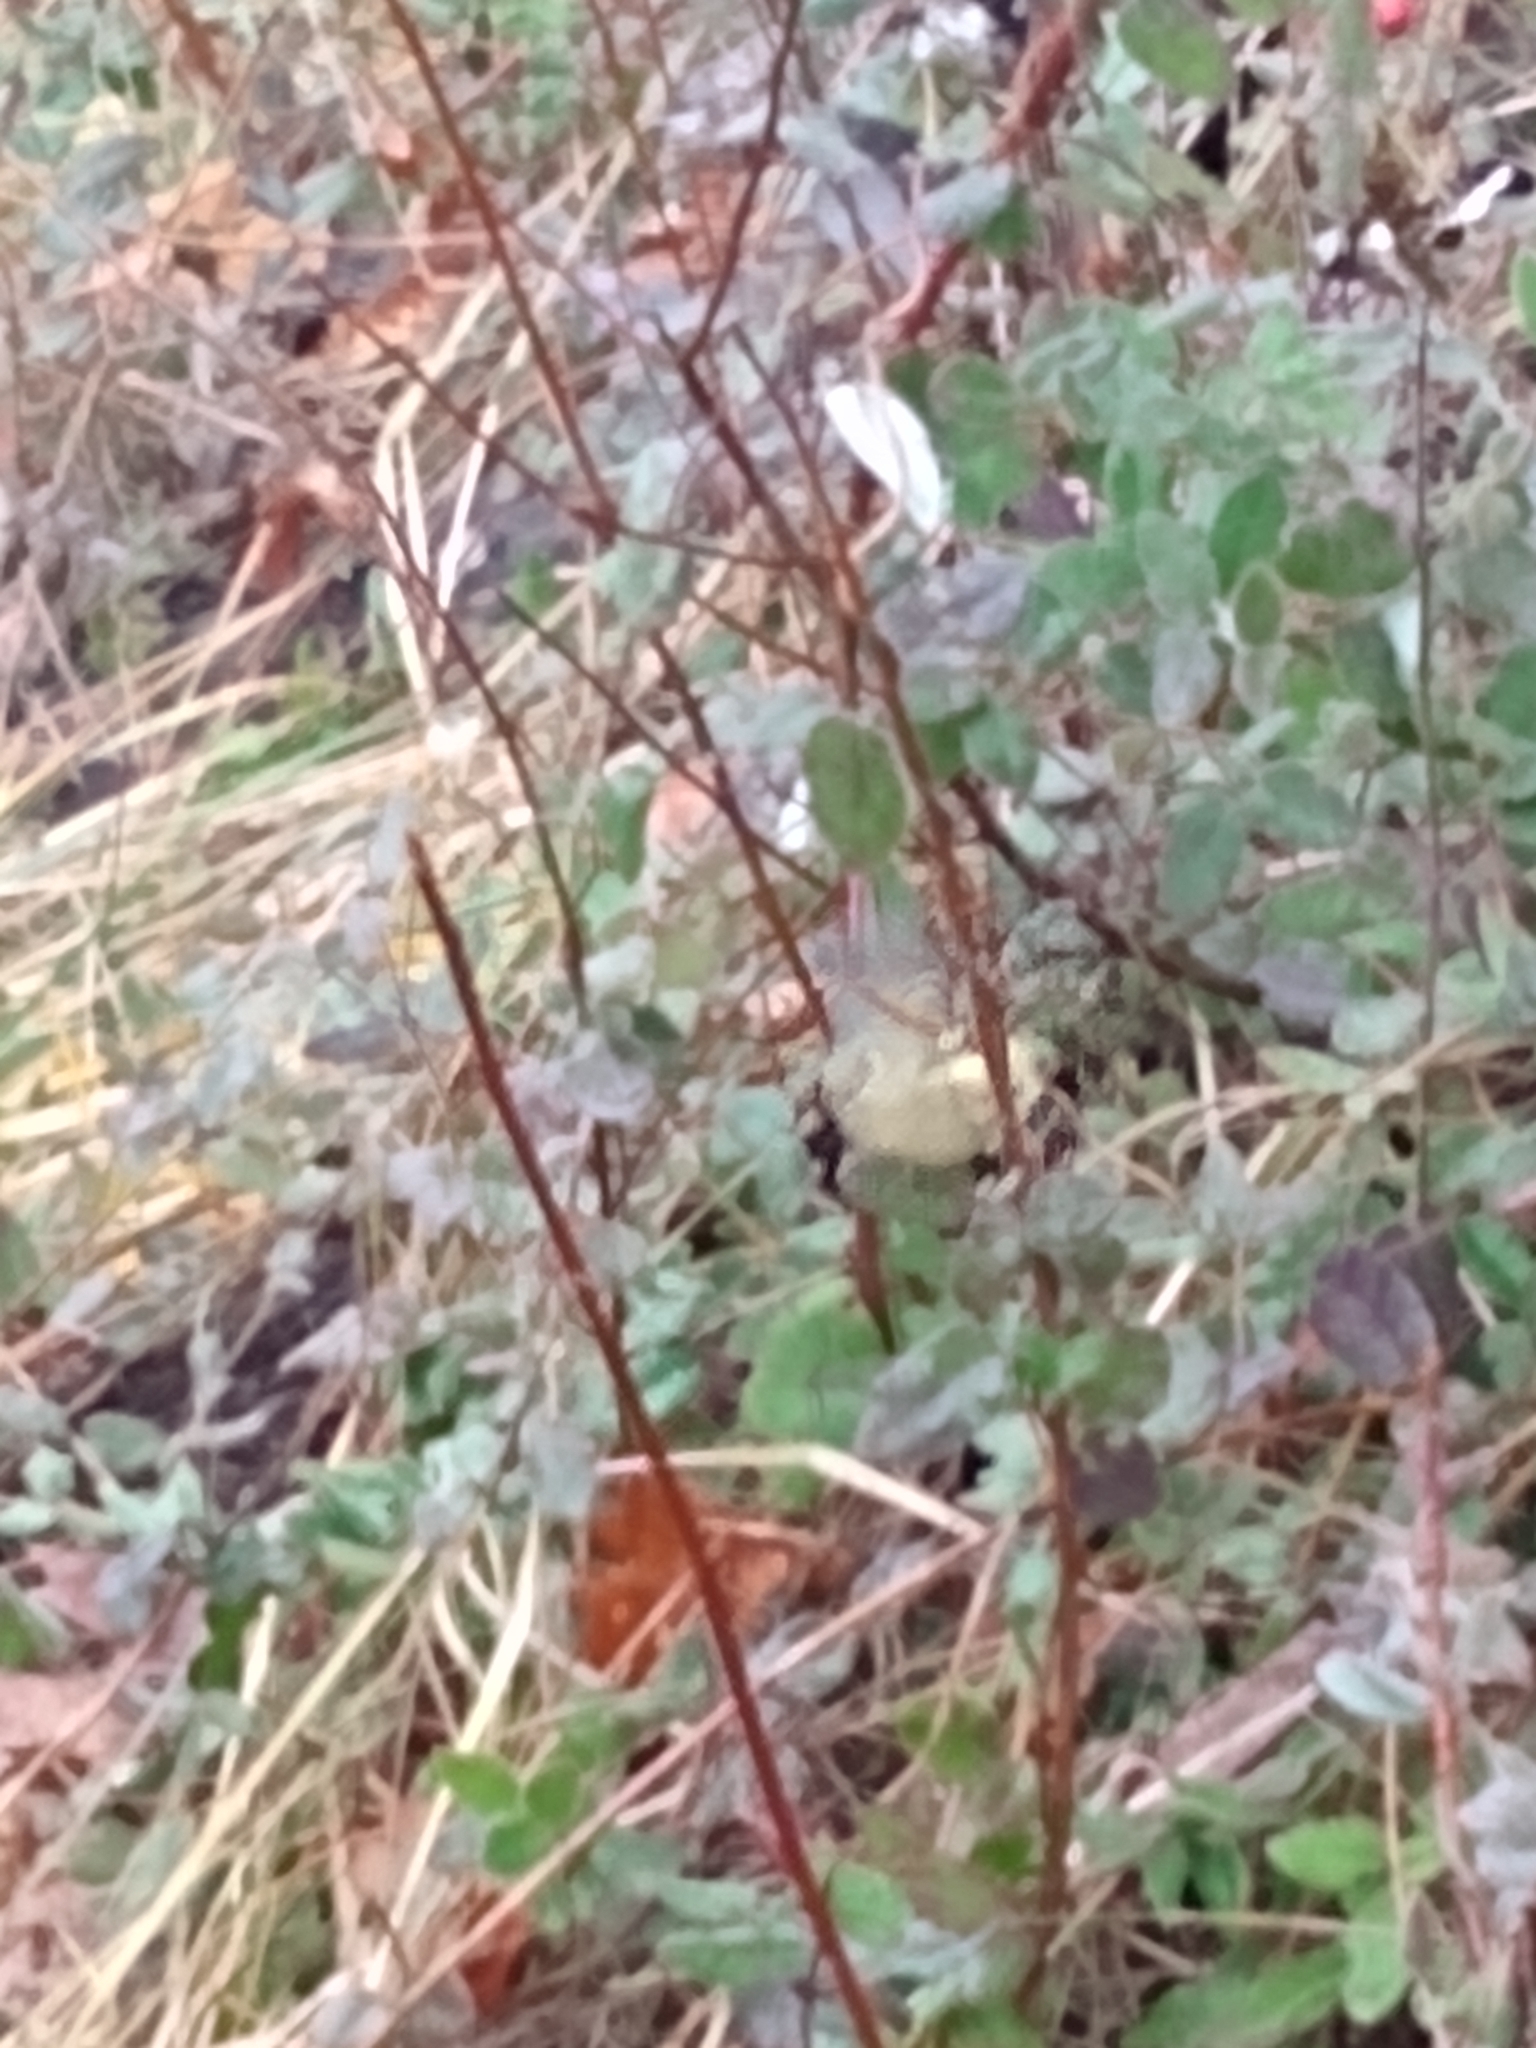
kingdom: Animalia
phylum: Chordata
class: Aves
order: Passeriformes
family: Regulidae
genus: Regulus
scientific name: Regulus calendula
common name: Ruby-crowned kinglet
